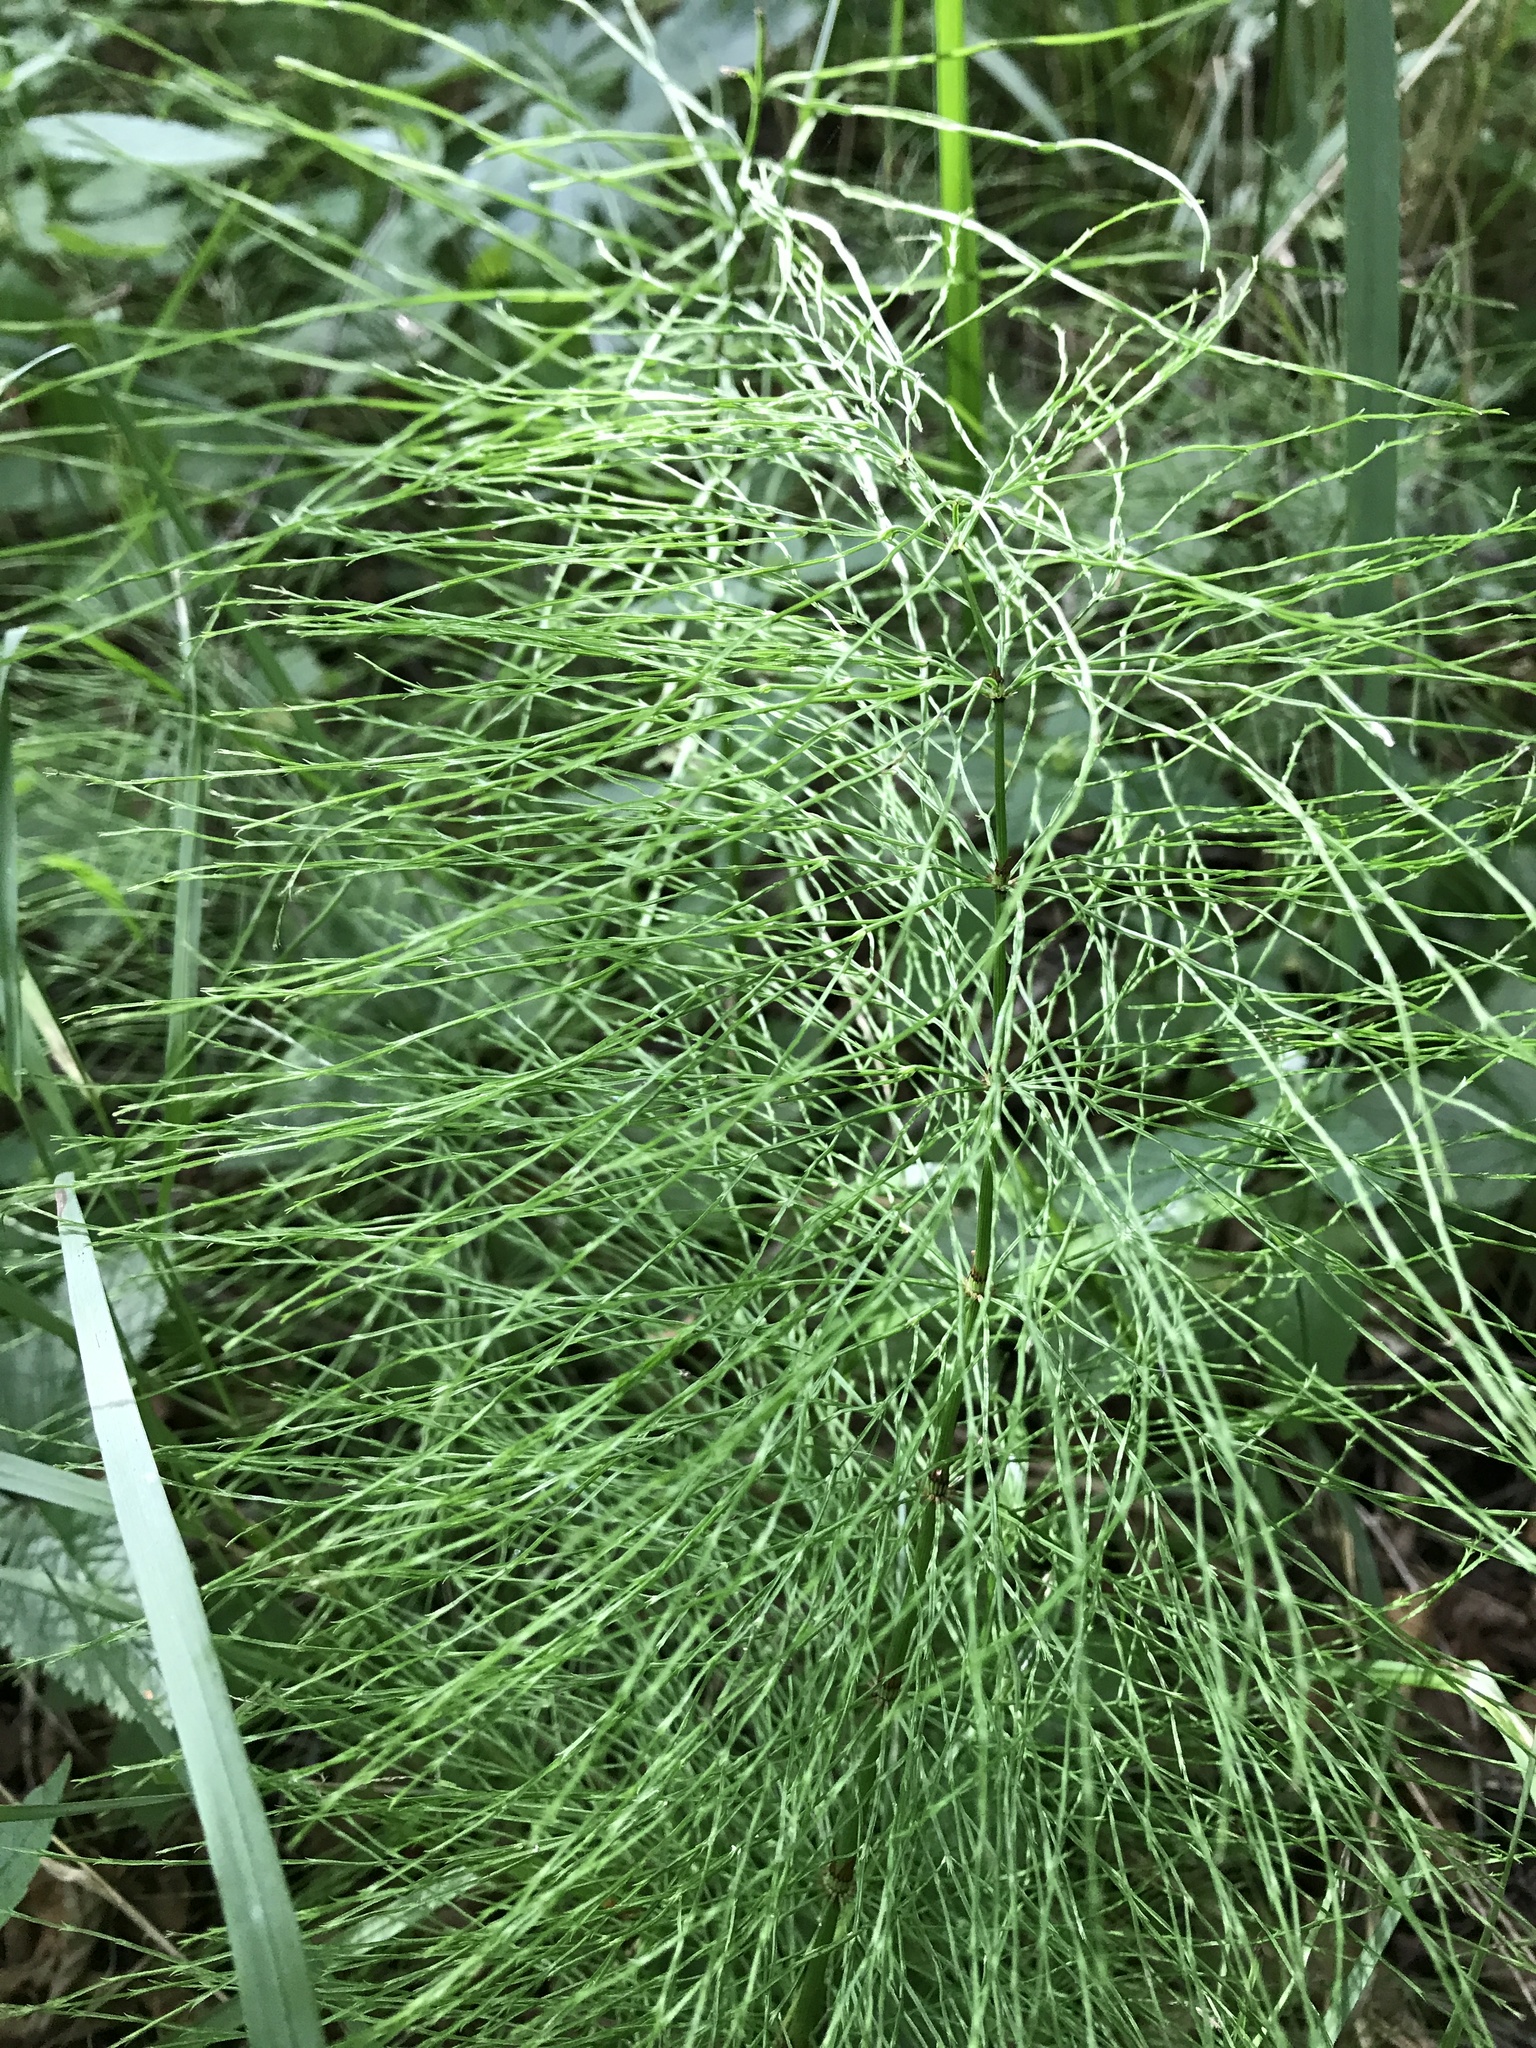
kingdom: Plantae
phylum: Tracheophyta
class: Polypodiopsida
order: Equisetales
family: Equisetaceae
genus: Equisetum
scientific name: Equisetum sylvaticum
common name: Wood horsetail
